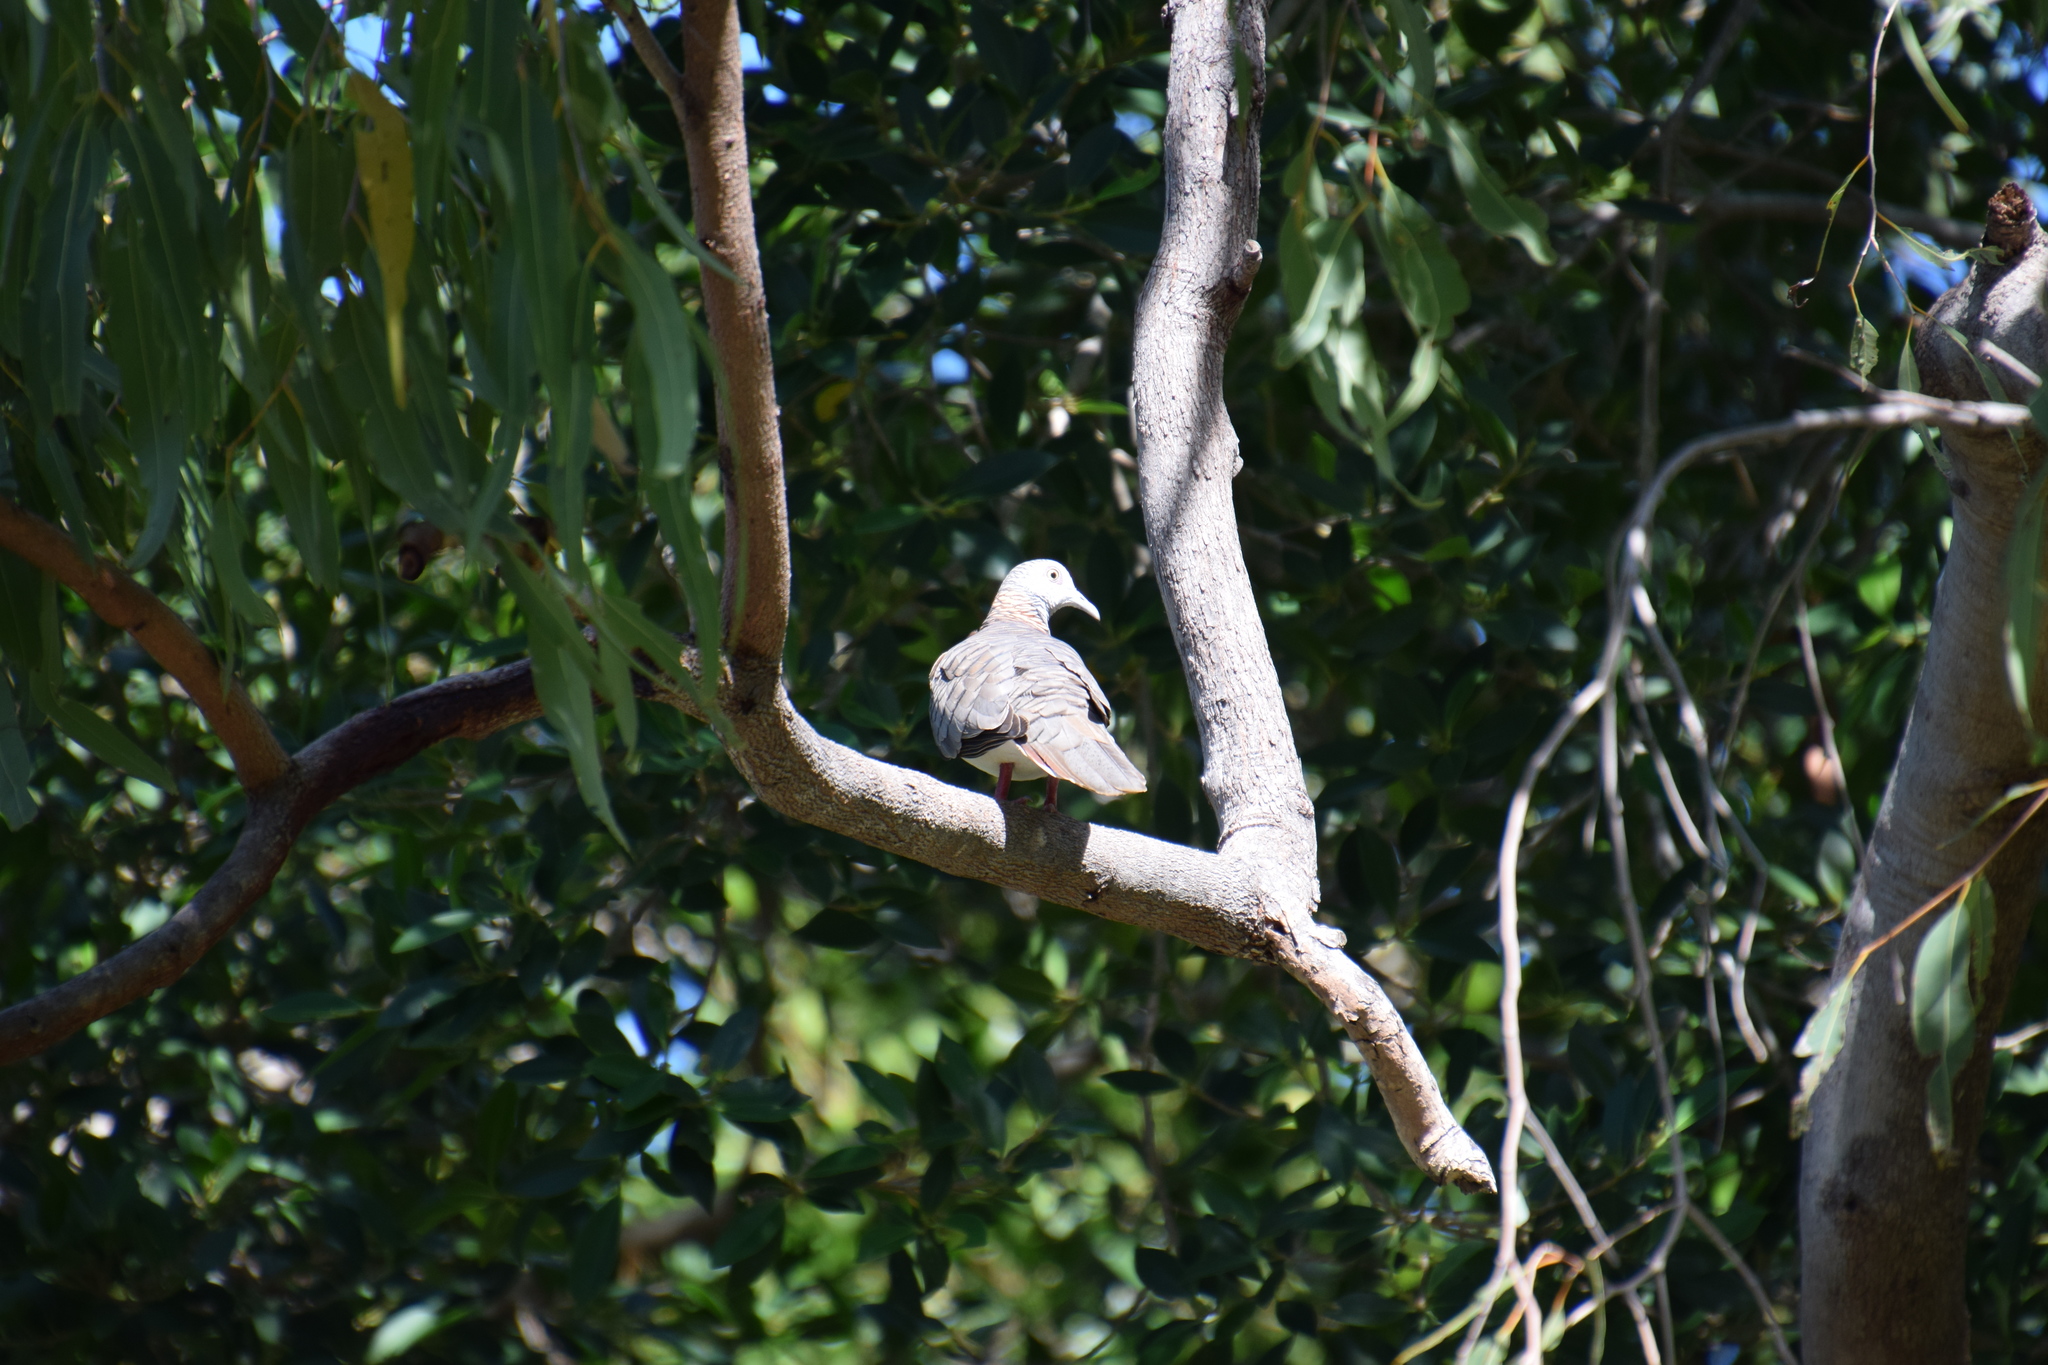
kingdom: Animalia
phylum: Chordata
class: Aves
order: Columbiformes
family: Columbidae
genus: Geopelia
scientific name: Geopelia humeralis
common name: Bar-shouldered dove
